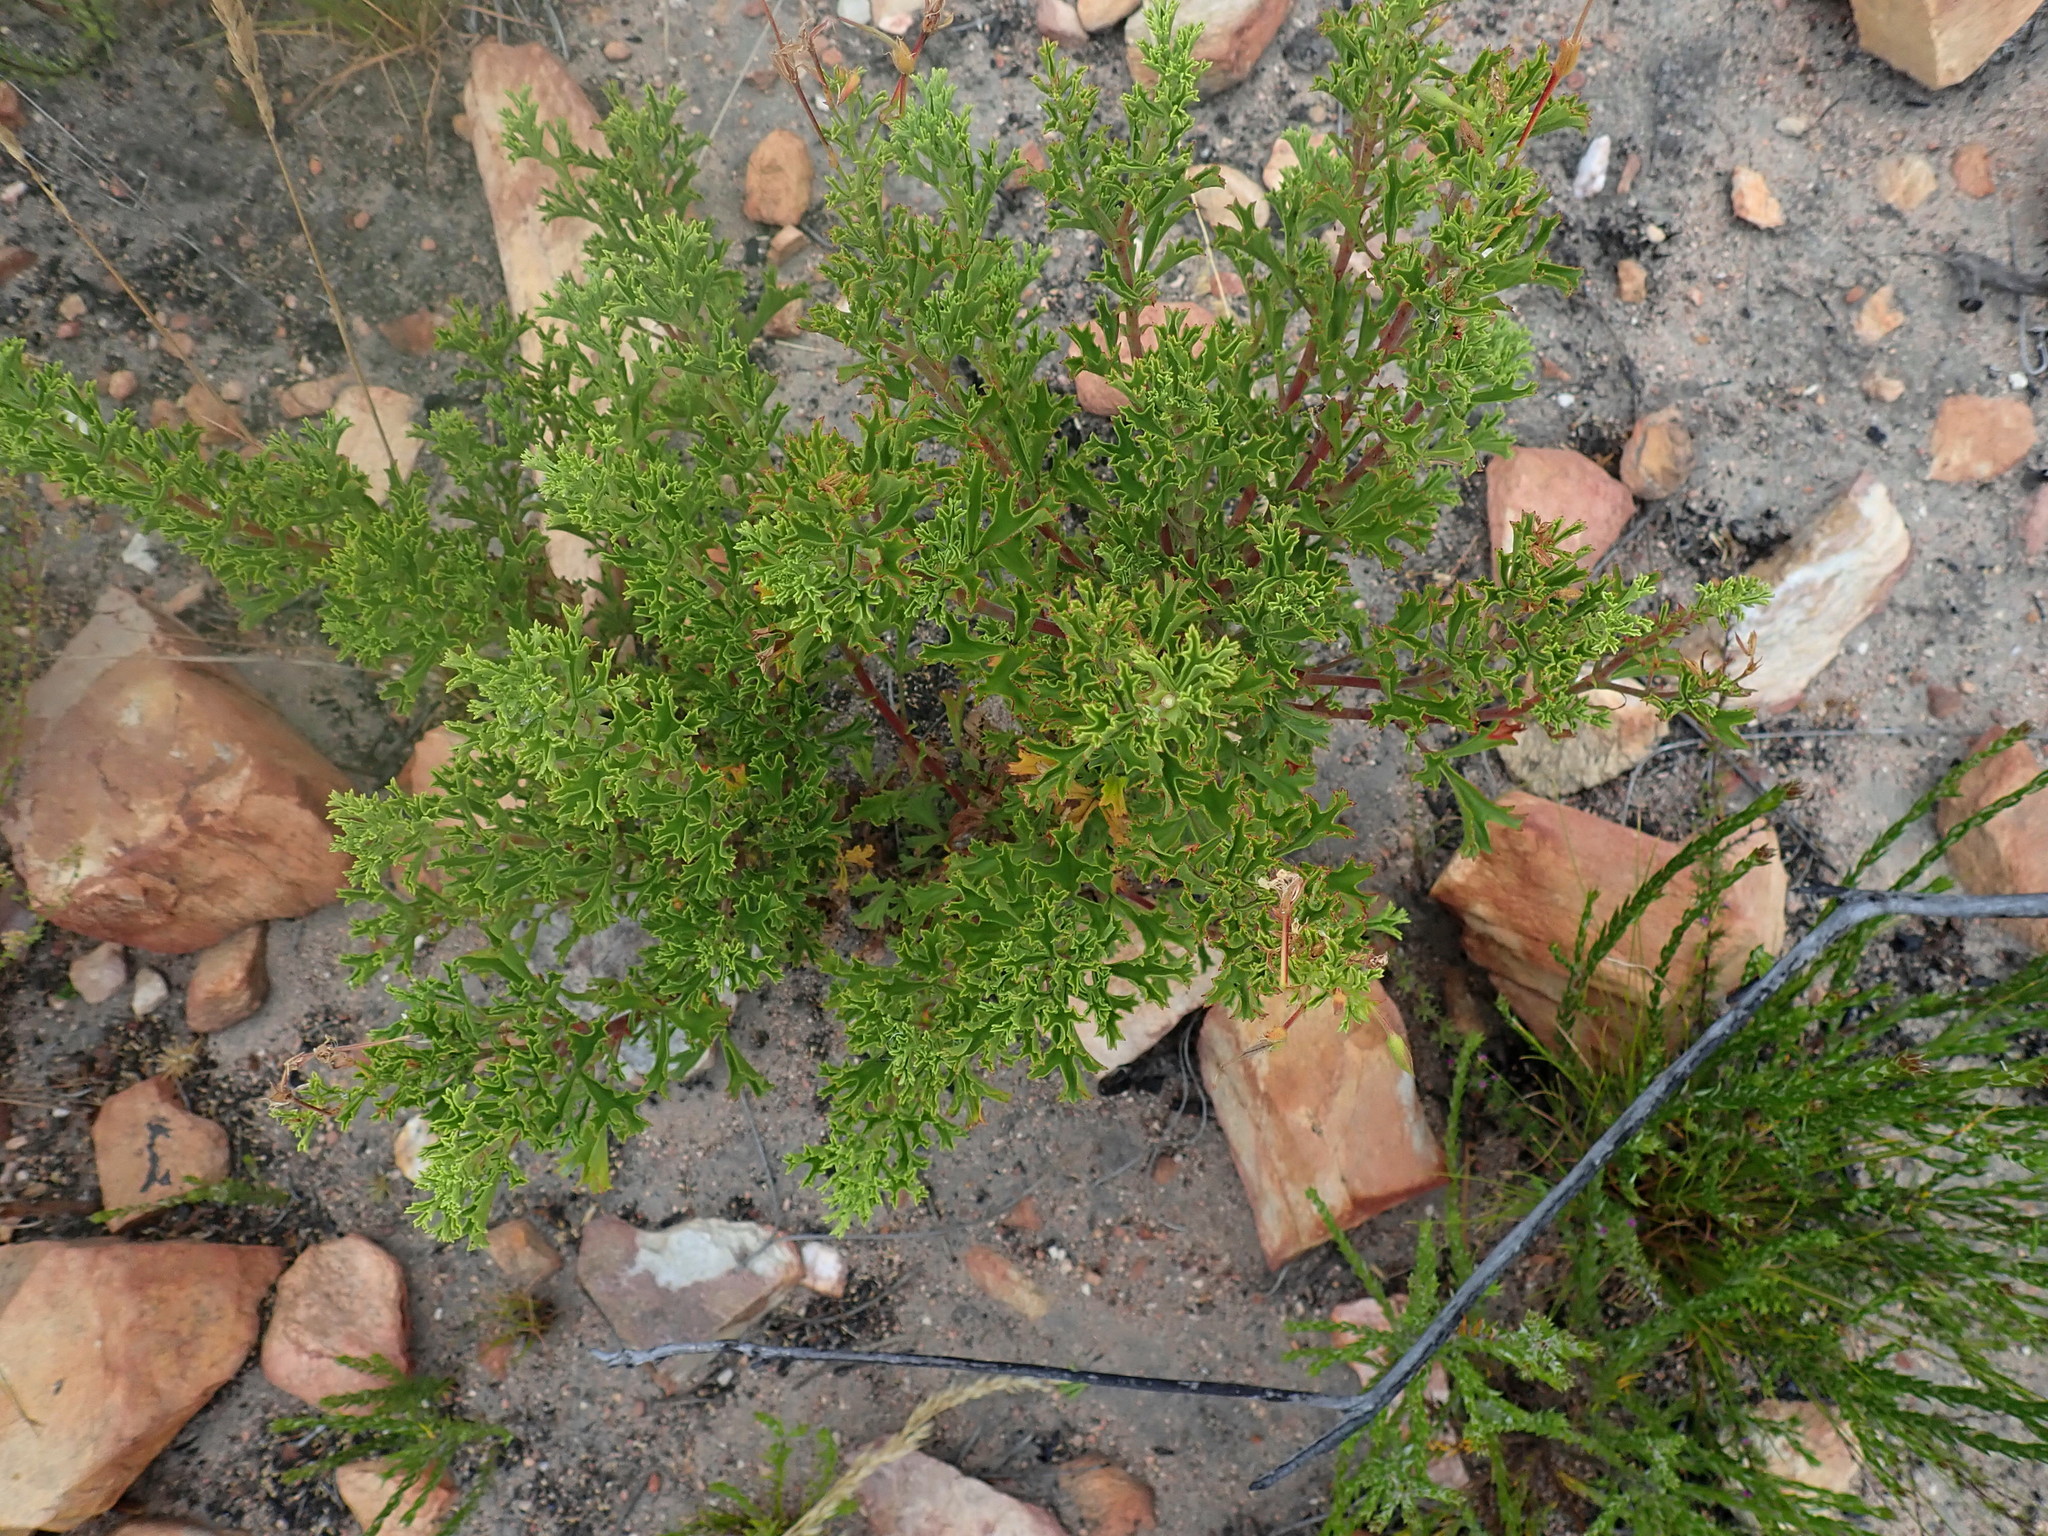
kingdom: Plantae
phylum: Tracheophyta
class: Magnoliopsida
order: Geraniales
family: Geraniaceae
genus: Pelargonium
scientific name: Pelargonium ternatum
